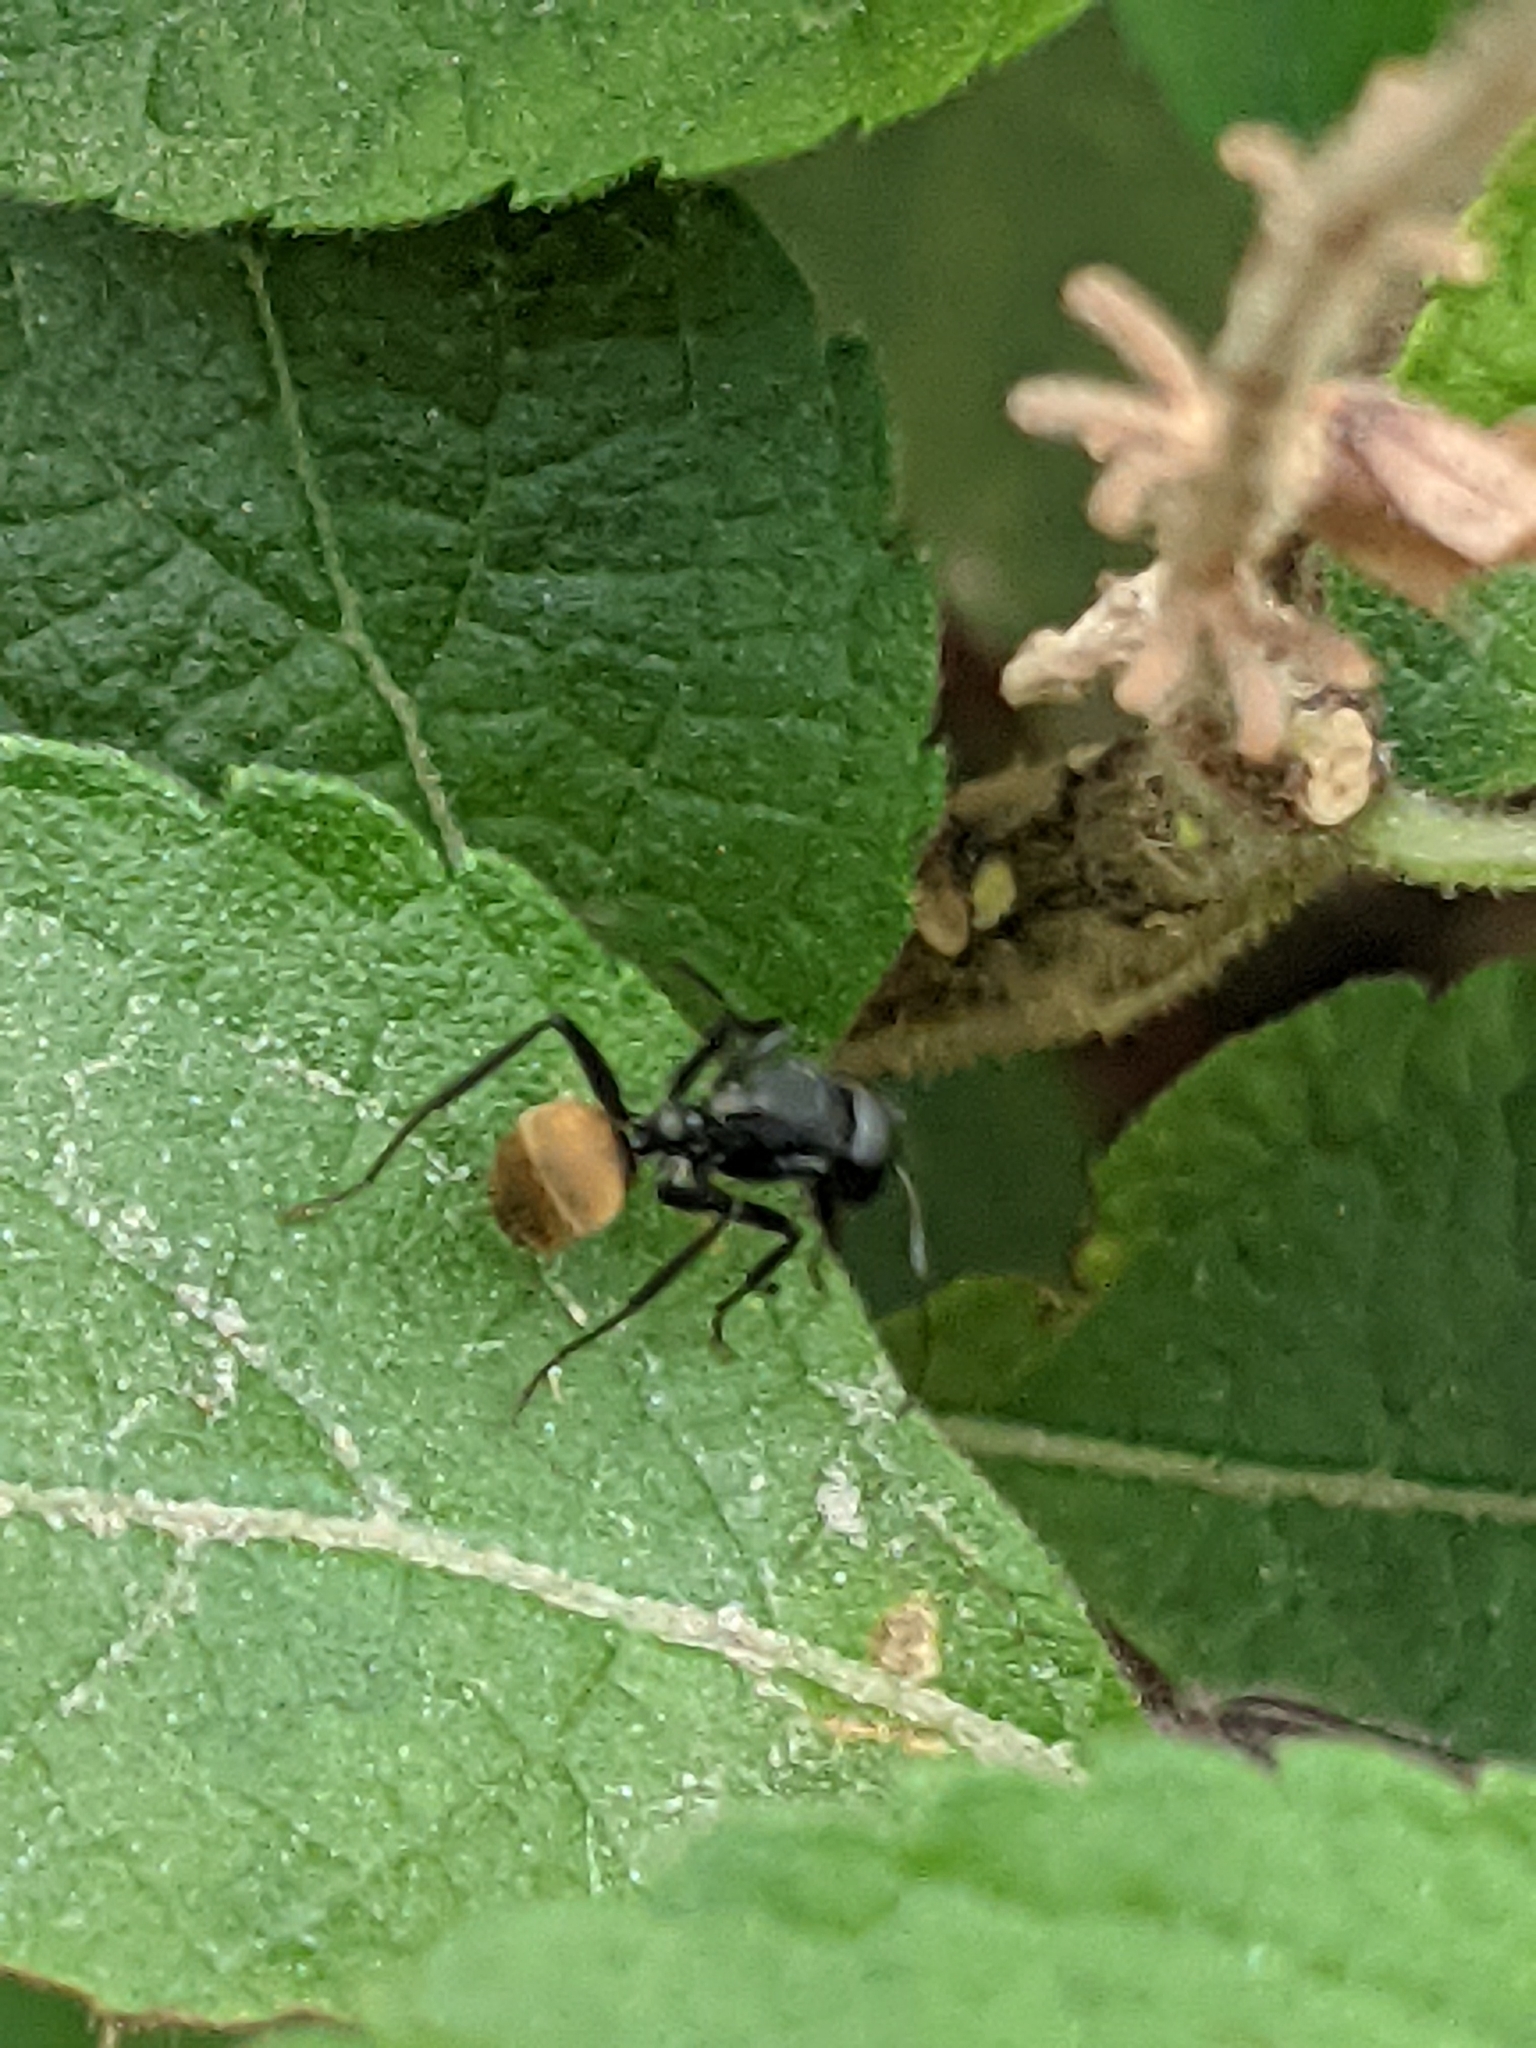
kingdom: Animalia
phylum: Arthropoda
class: Insecta
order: Hymenoptera
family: Formicidae
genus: Camponotus
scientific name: Camponotus sericeus
